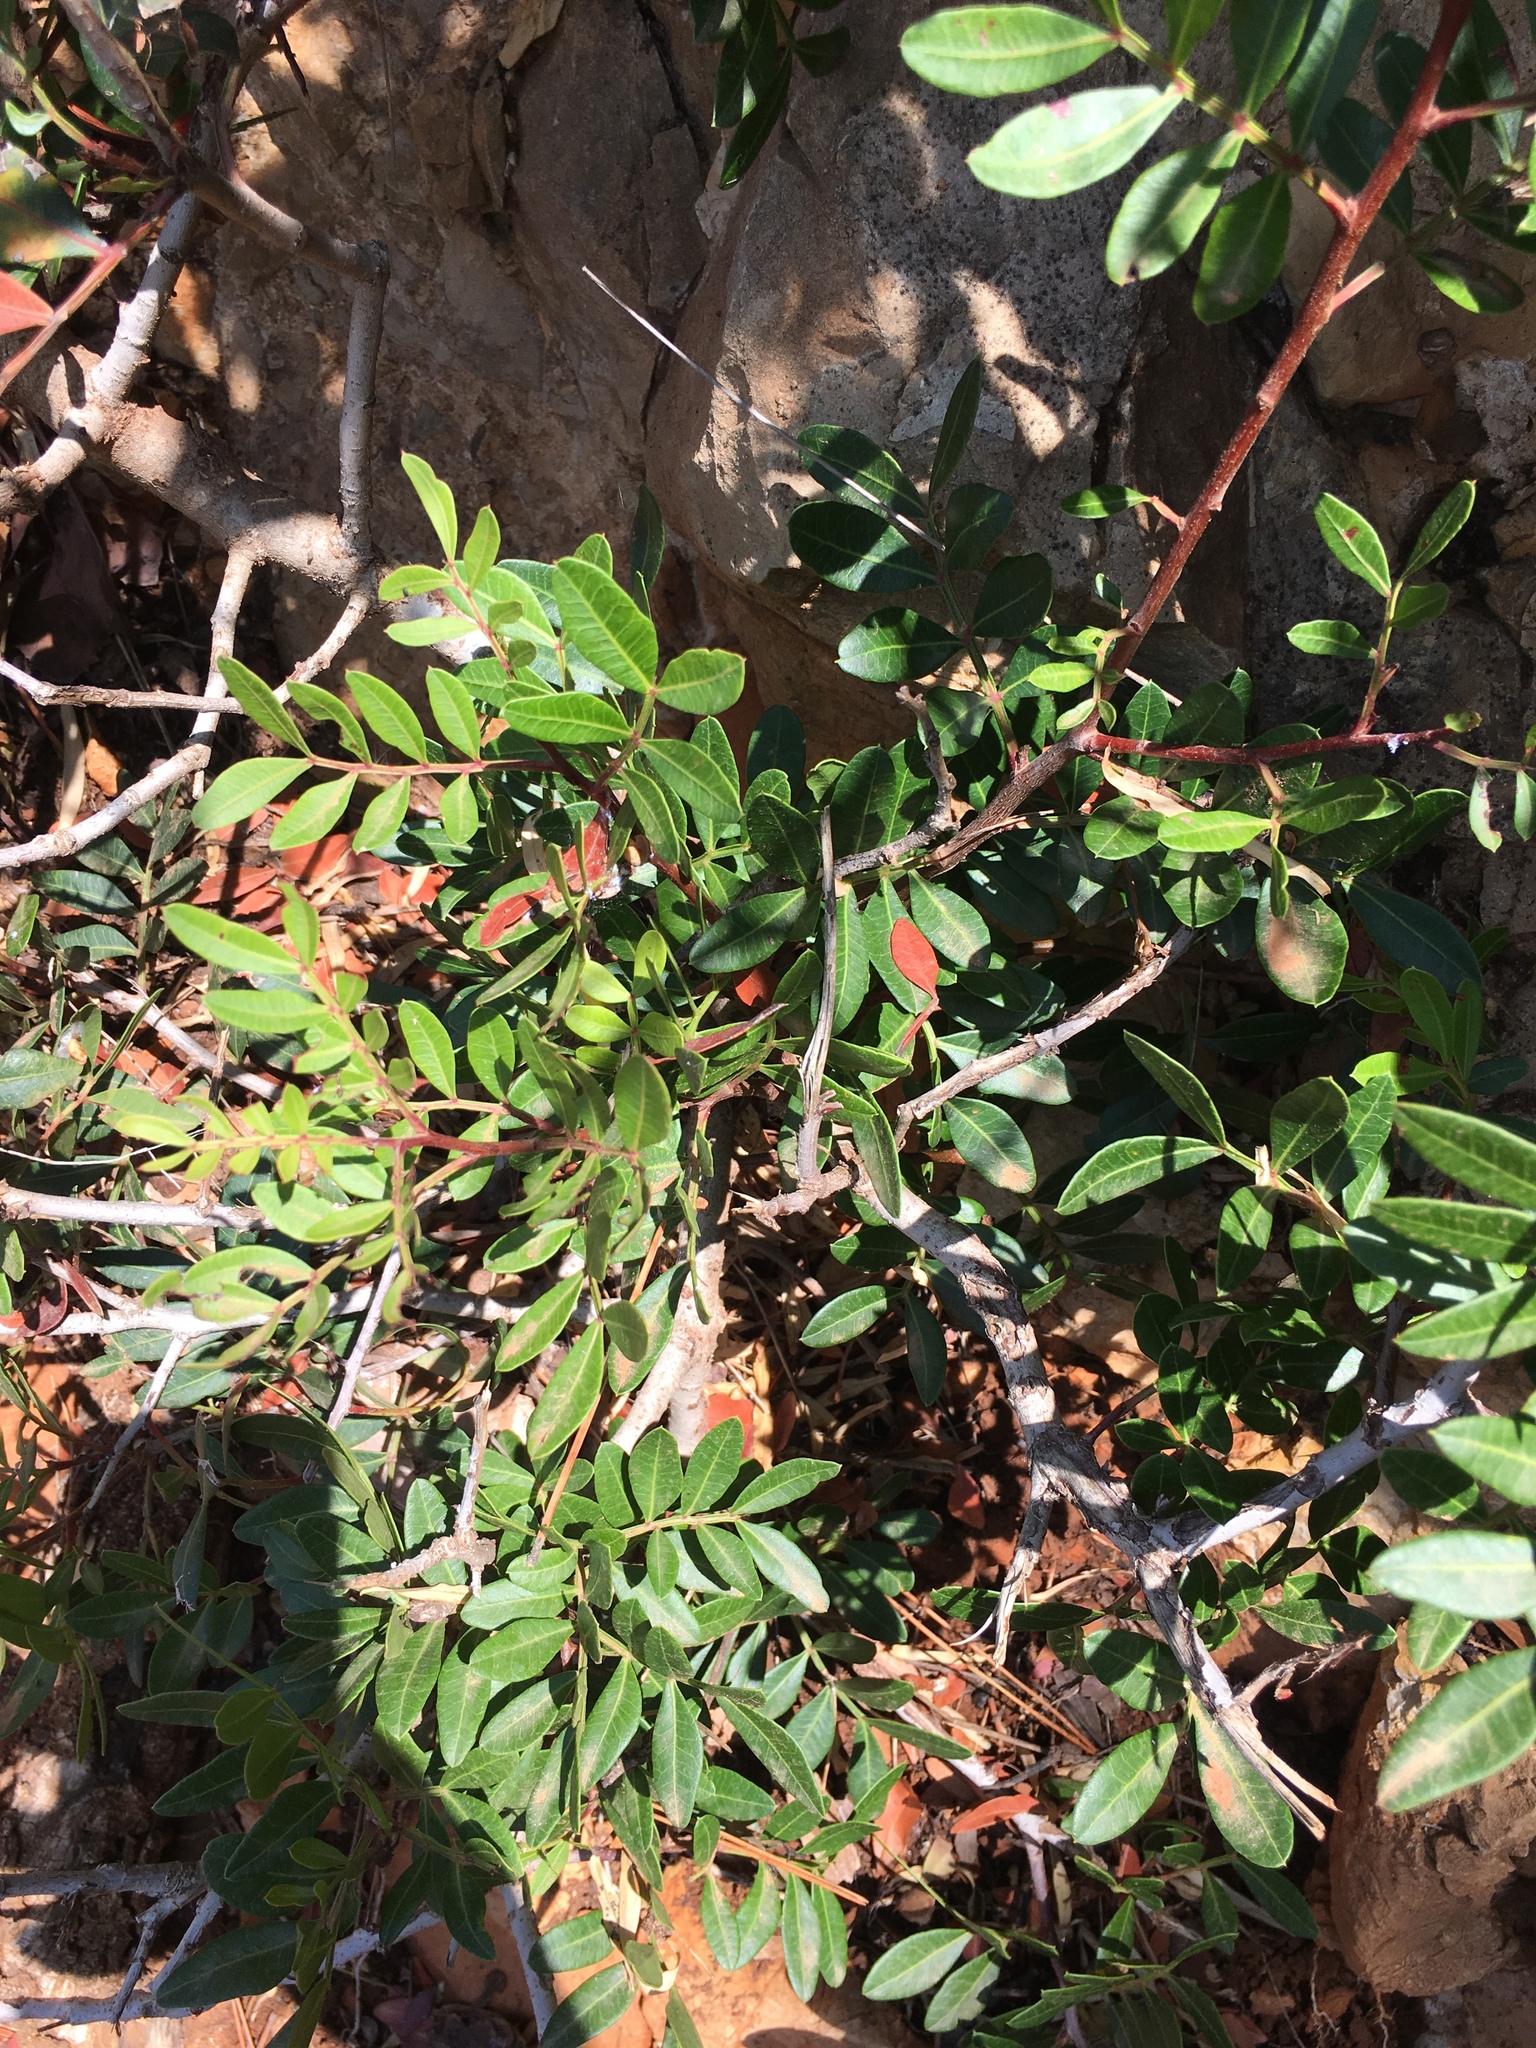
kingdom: Plantae
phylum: Tracheophyta
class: Magnoliopsida
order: Sapindales
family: Anacardiaceae
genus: Pistacia
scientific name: Pistacia lentiscus
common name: Lentisk
